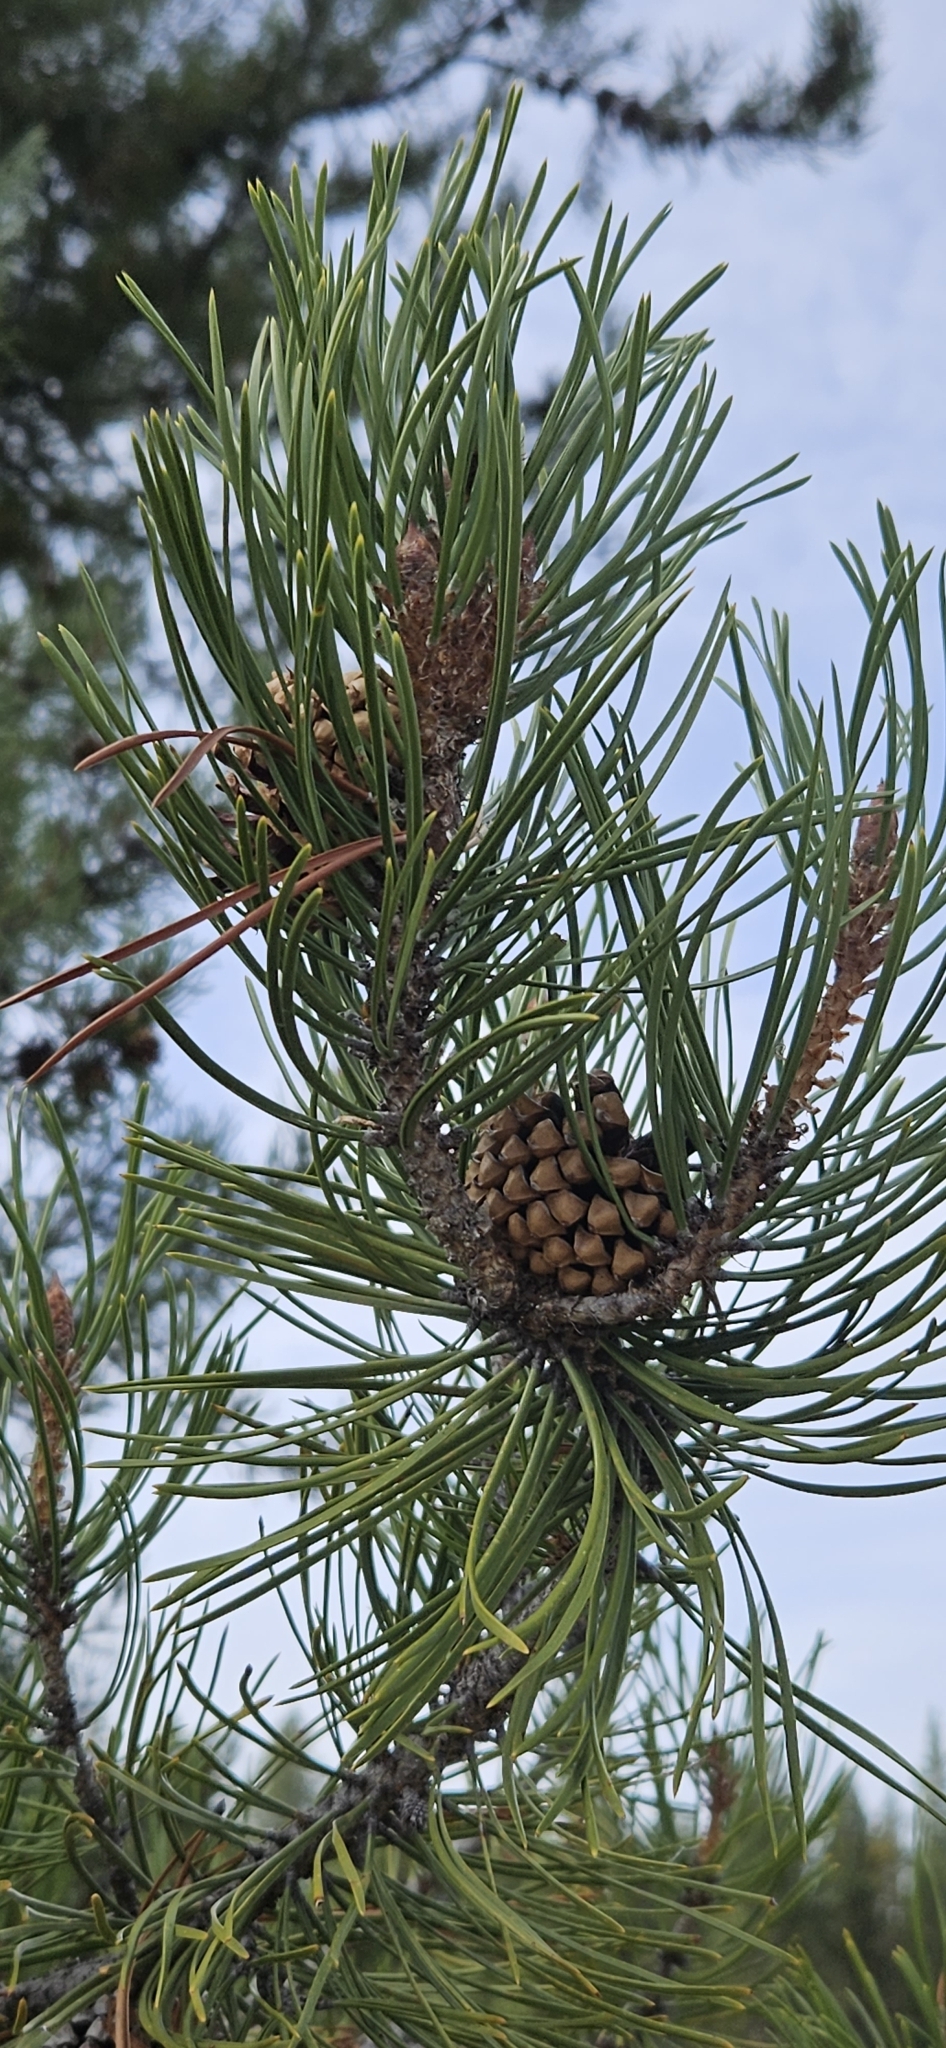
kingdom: Plantae
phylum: Tracheophyta
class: Pinopsida
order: Pinales
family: Pinaceae
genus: Pinus
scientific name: Pinus contorta
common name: Lodgepole pine
